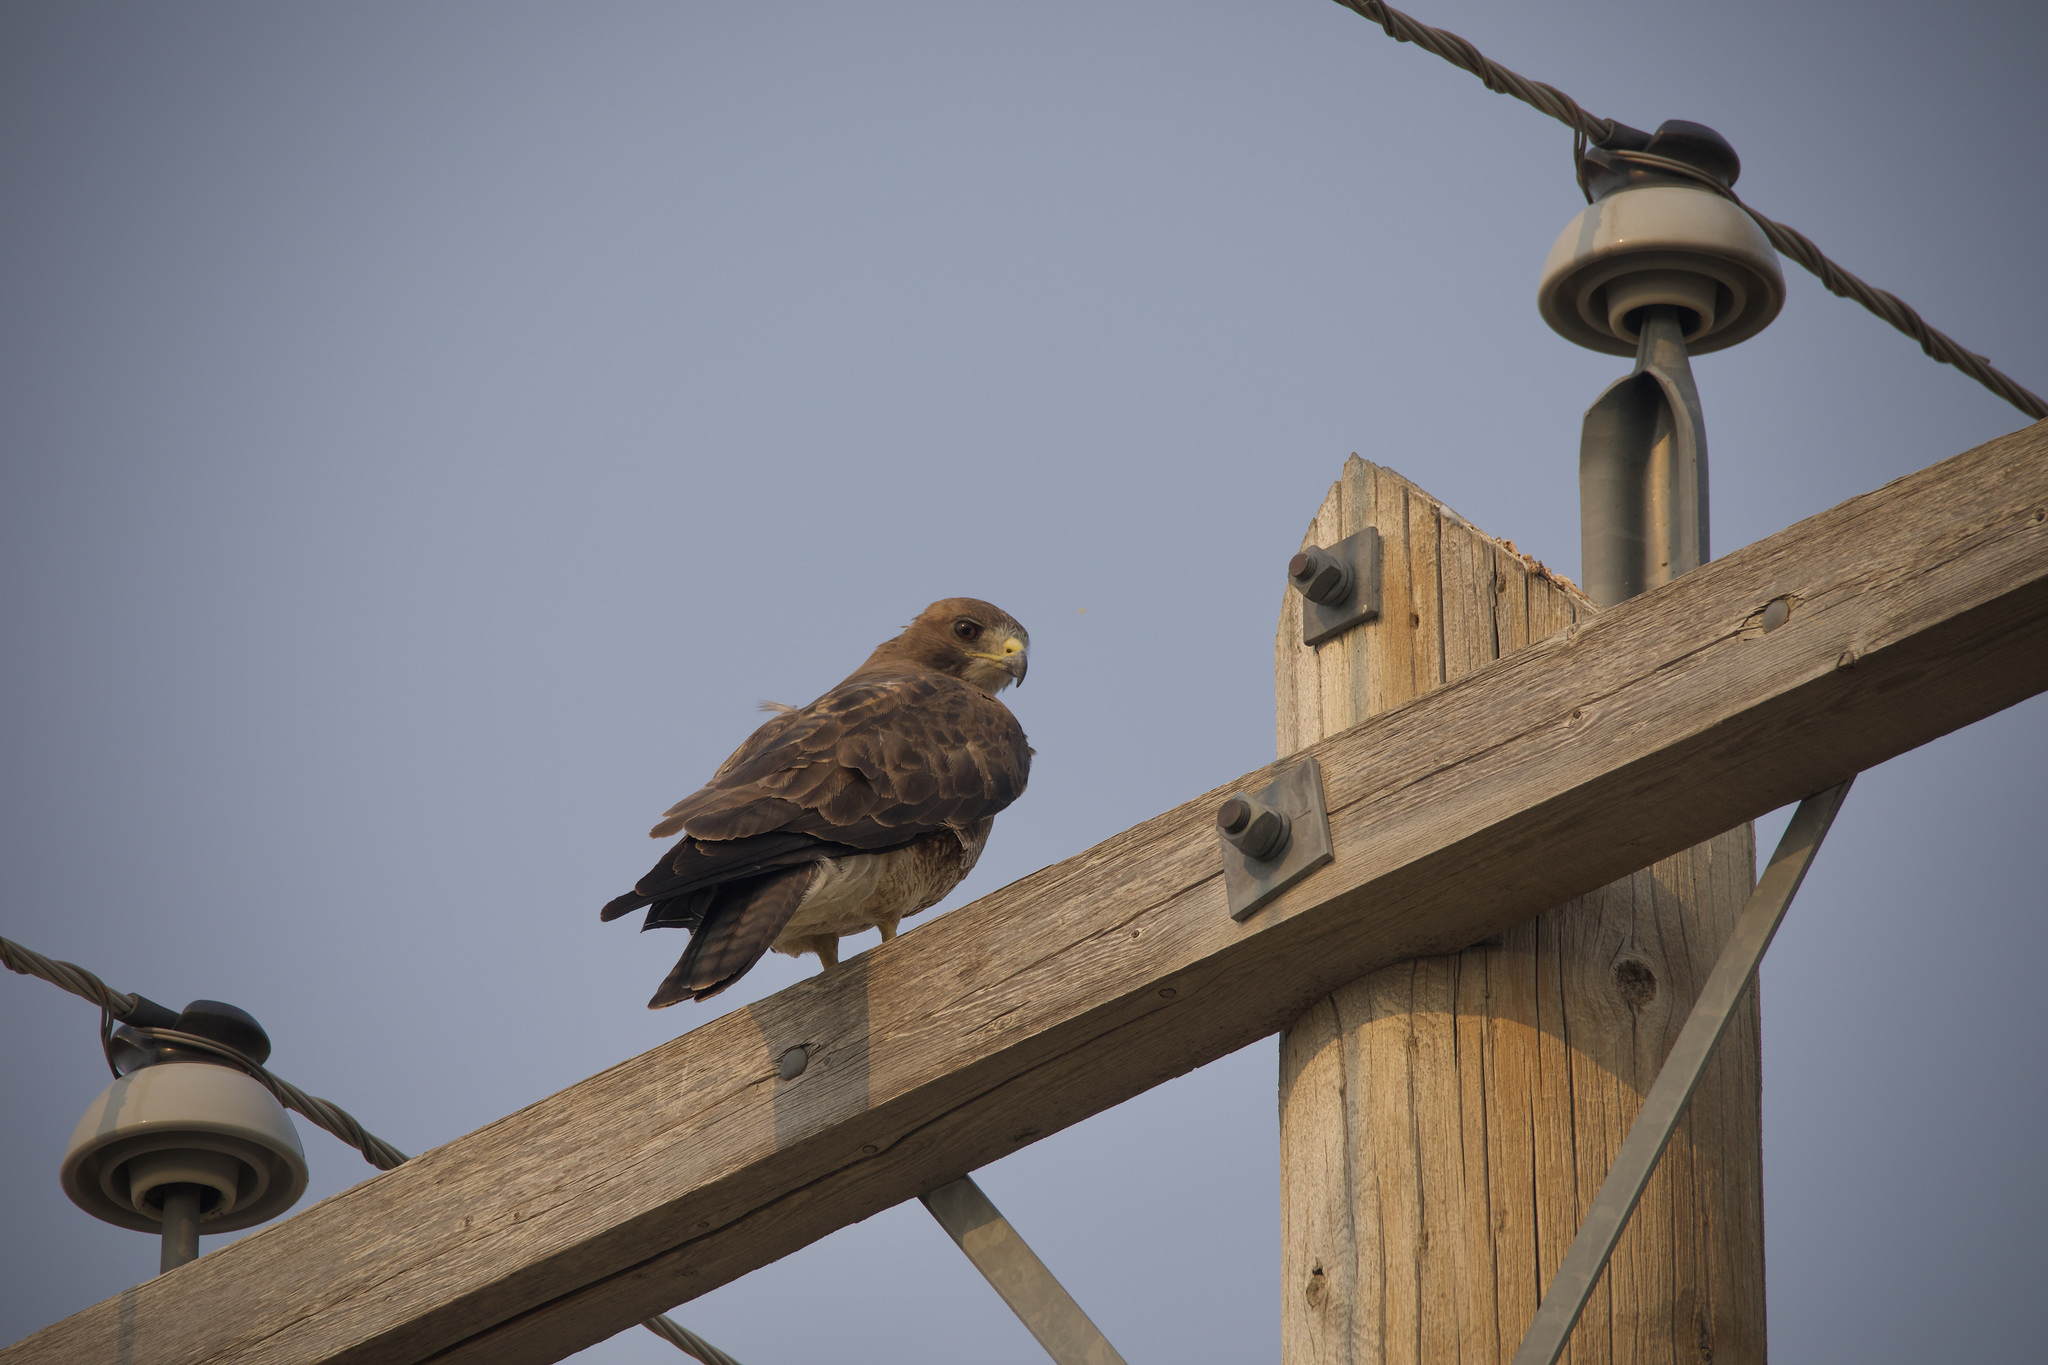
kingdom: Animalia
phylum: Chordata
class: Aves
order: Accipitriformes
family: Accipitridae
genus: Buteo
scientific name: Buteo swainsoni
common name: Swainson's hawk
